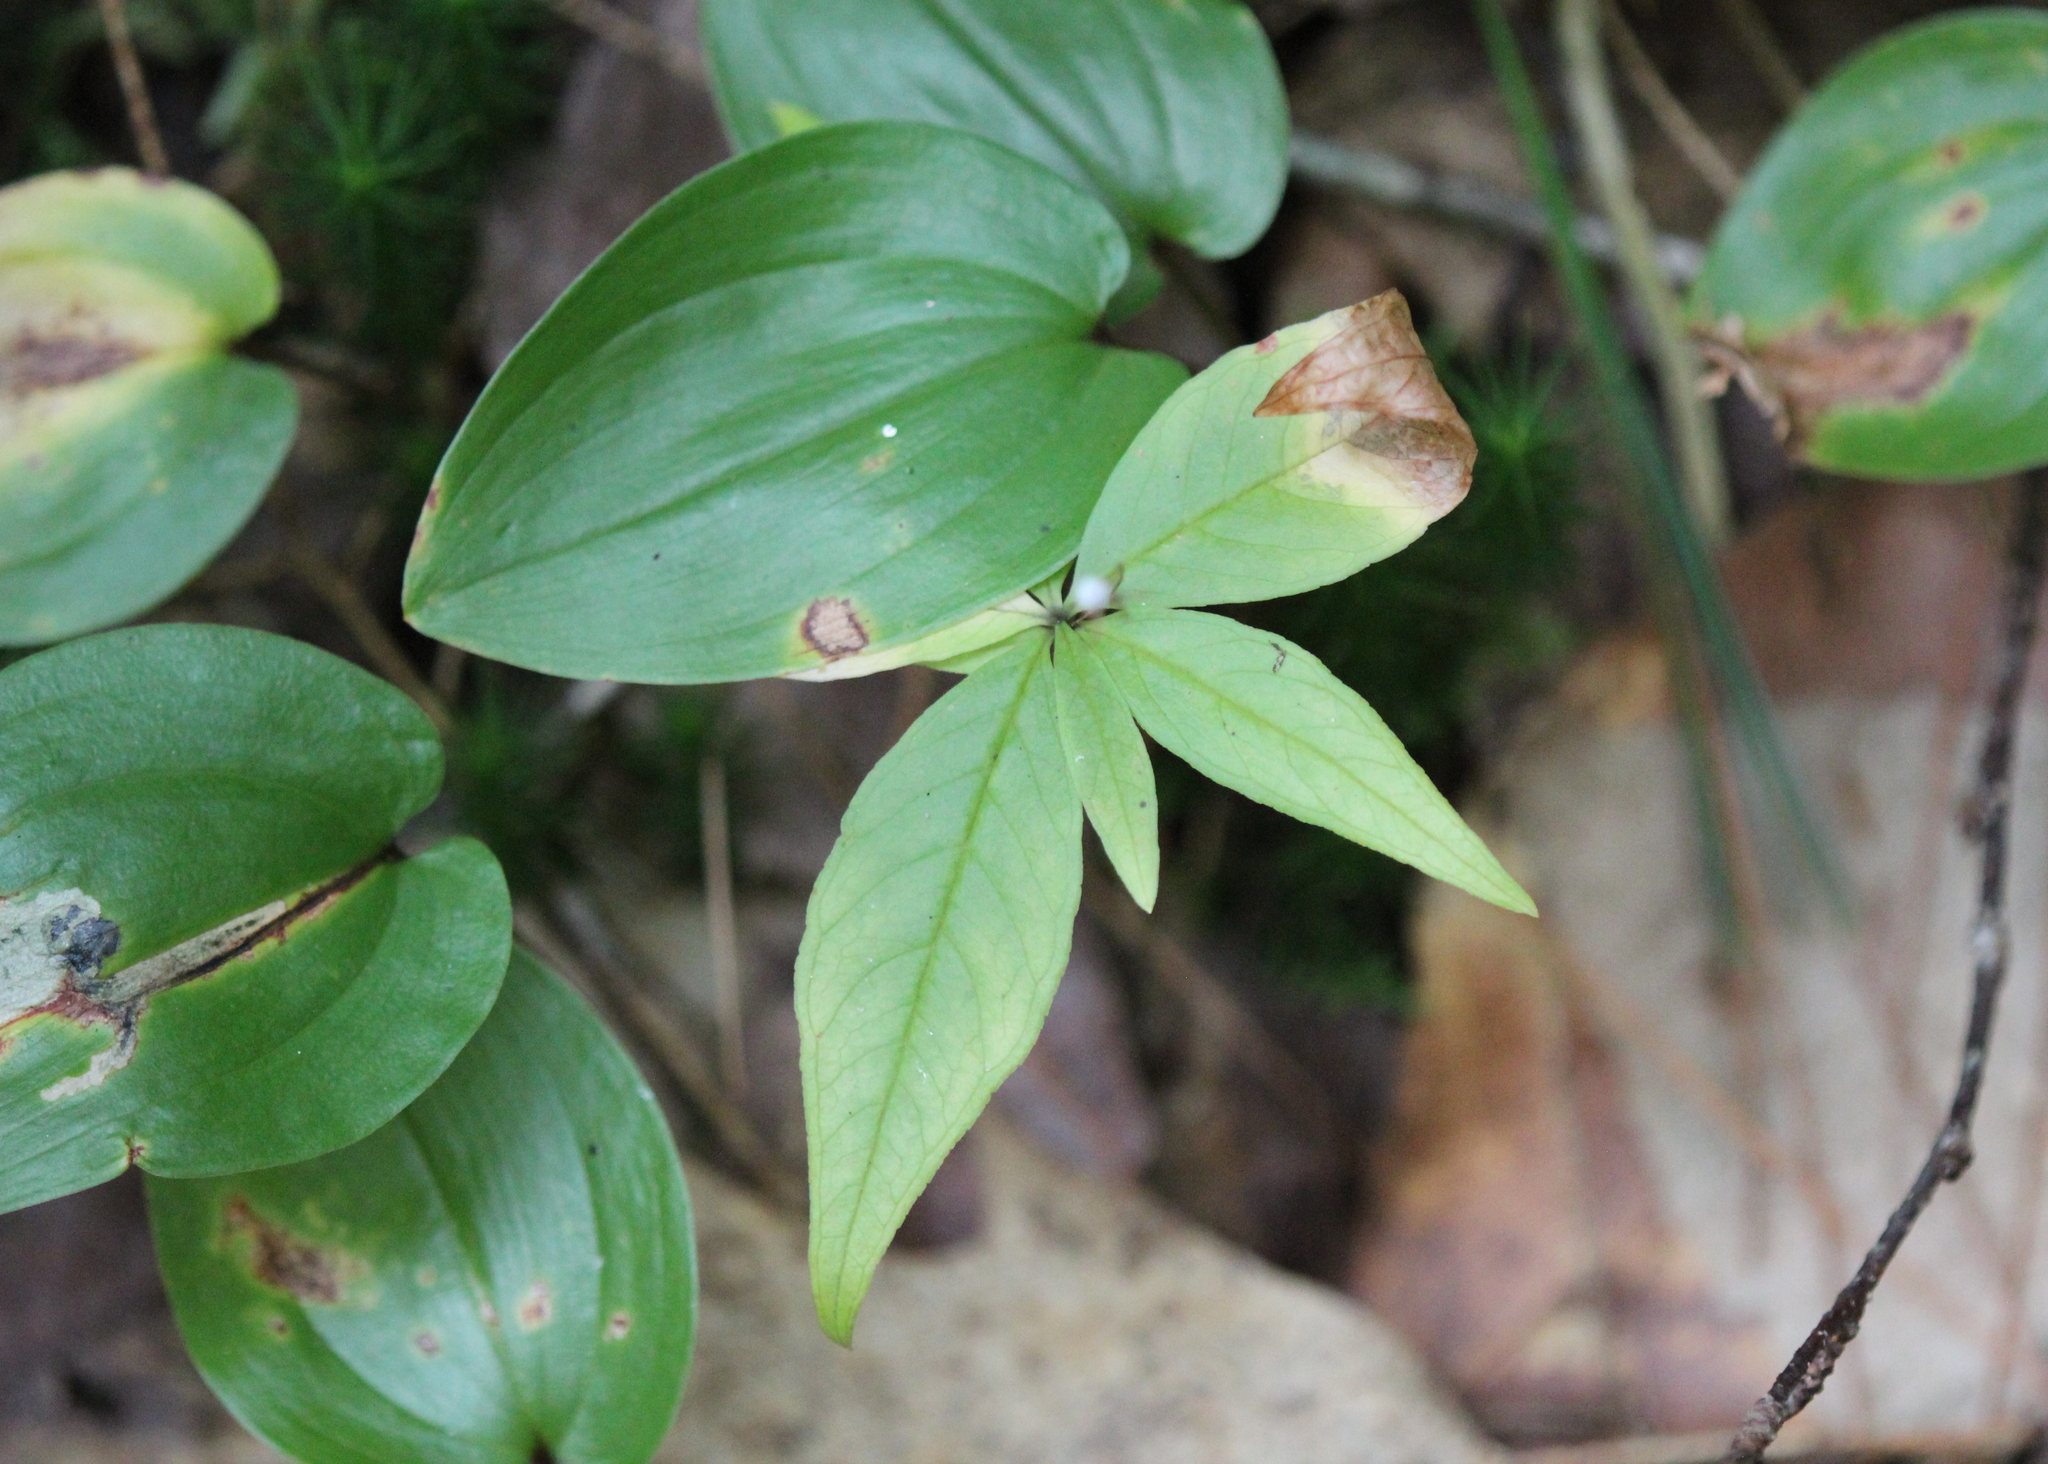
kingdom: Plantae
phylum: Tracheophyta
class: Magnoliopsida
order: Ericales
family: Primulaceae
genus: Lysimachia
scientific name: Lysimachia borealis
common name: American starflower
